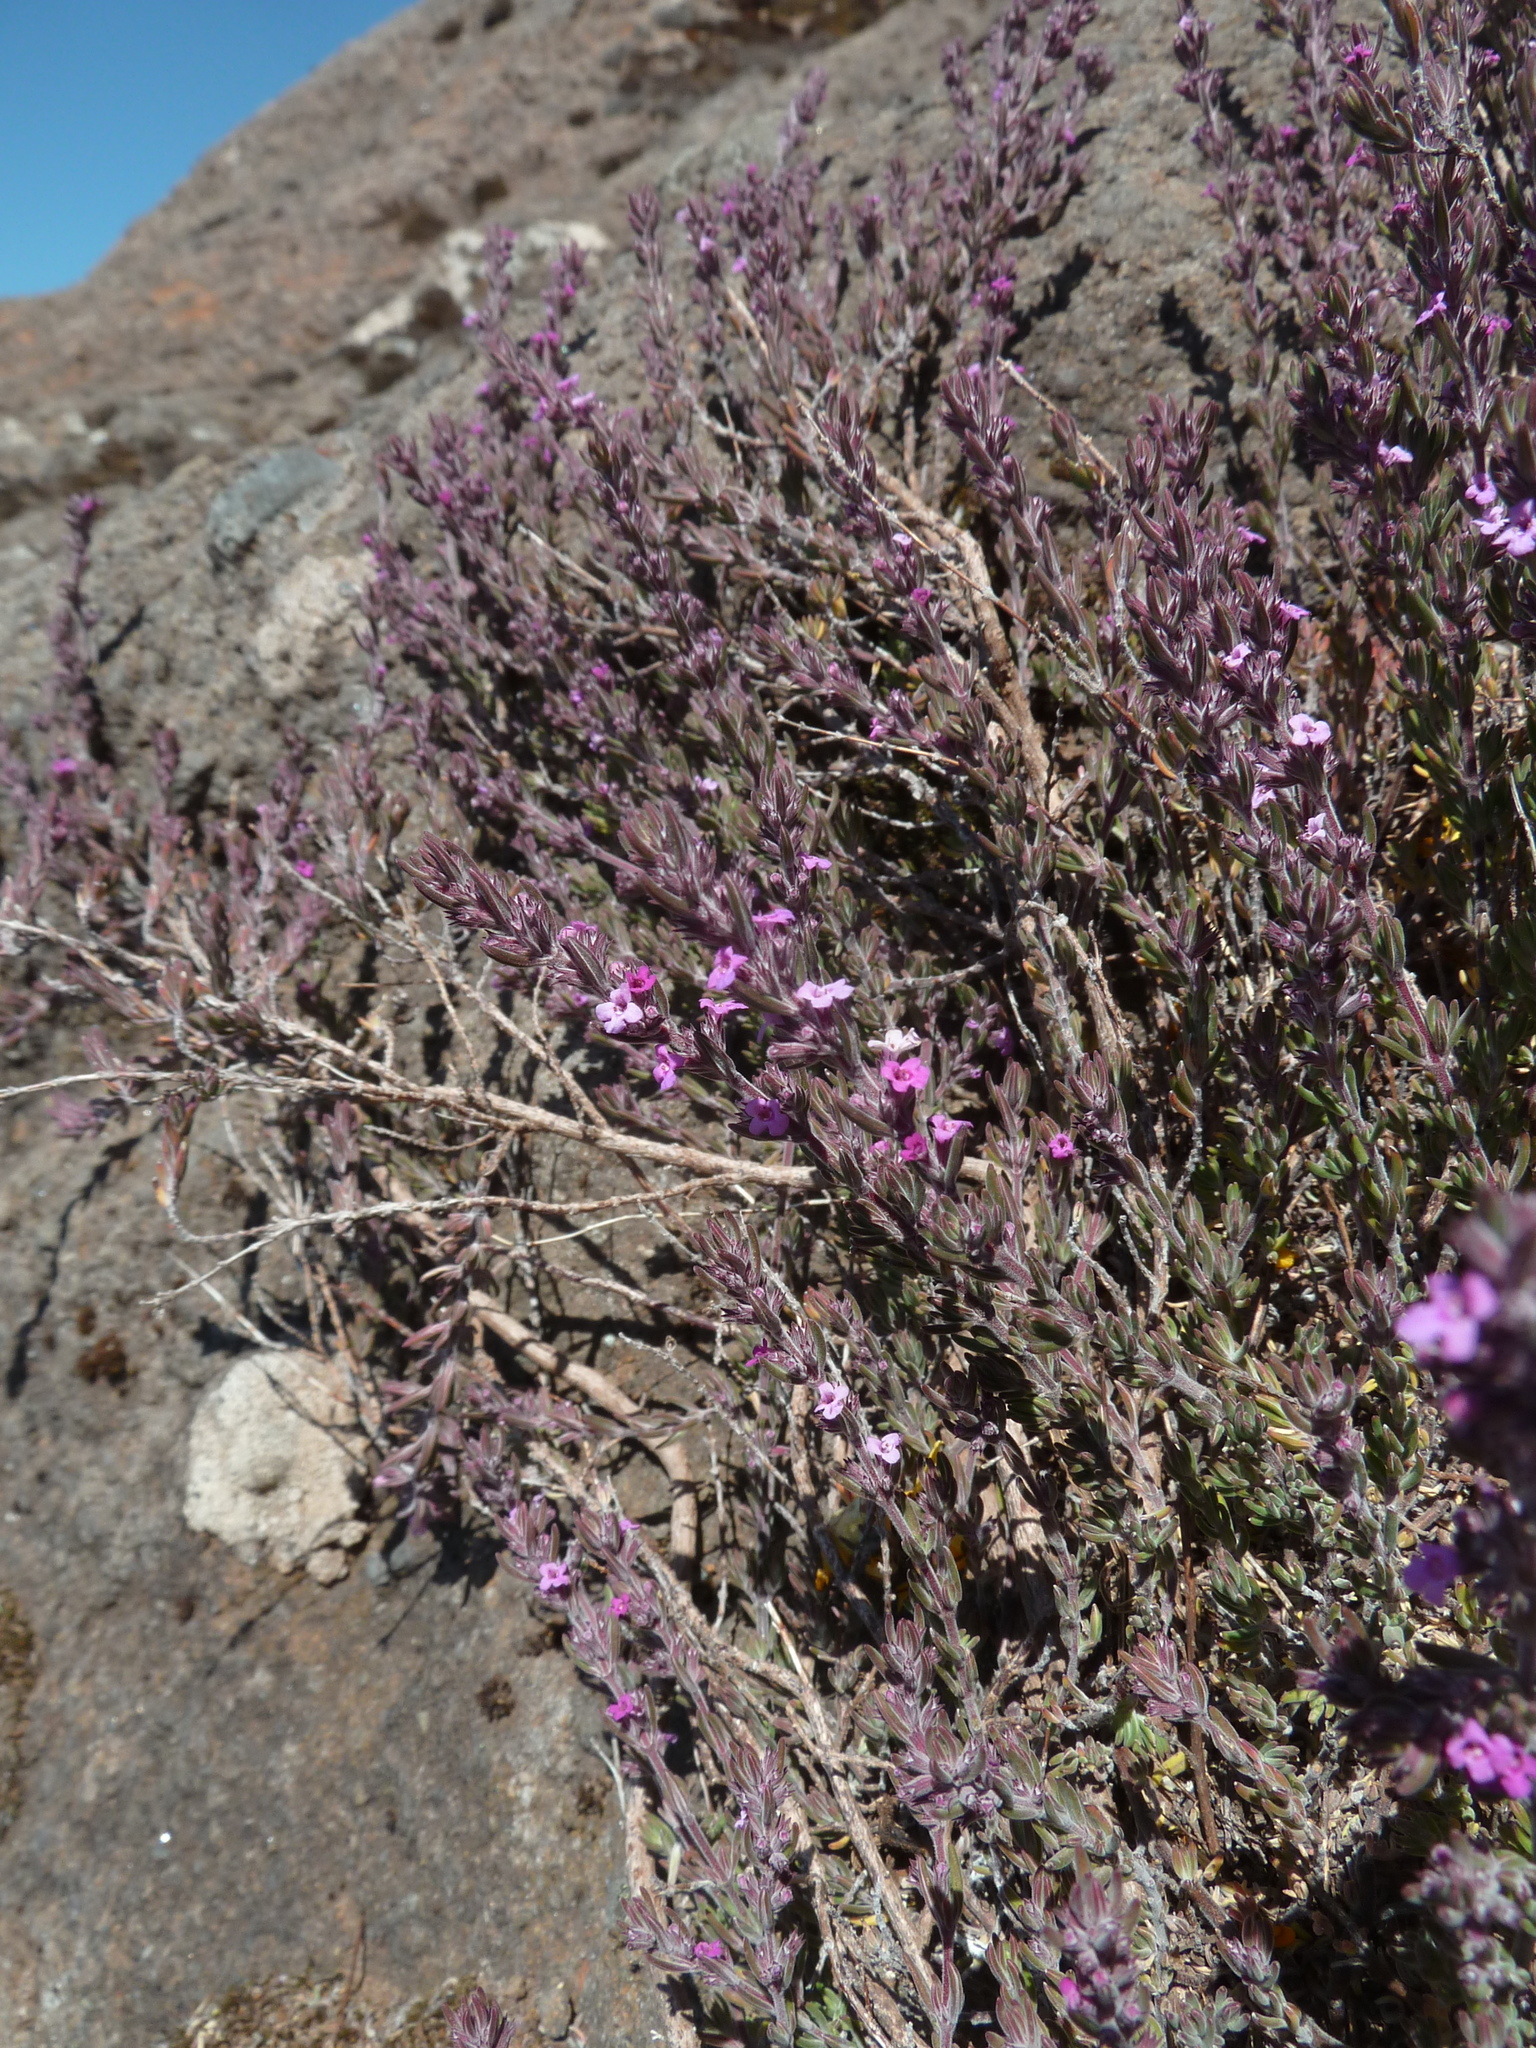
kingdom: Plantae
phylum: Tracheophyta
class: Magnoliopsida
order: Lamiales
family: Lamiaceae
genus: Micromeria
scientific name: Micromeria maderensis
